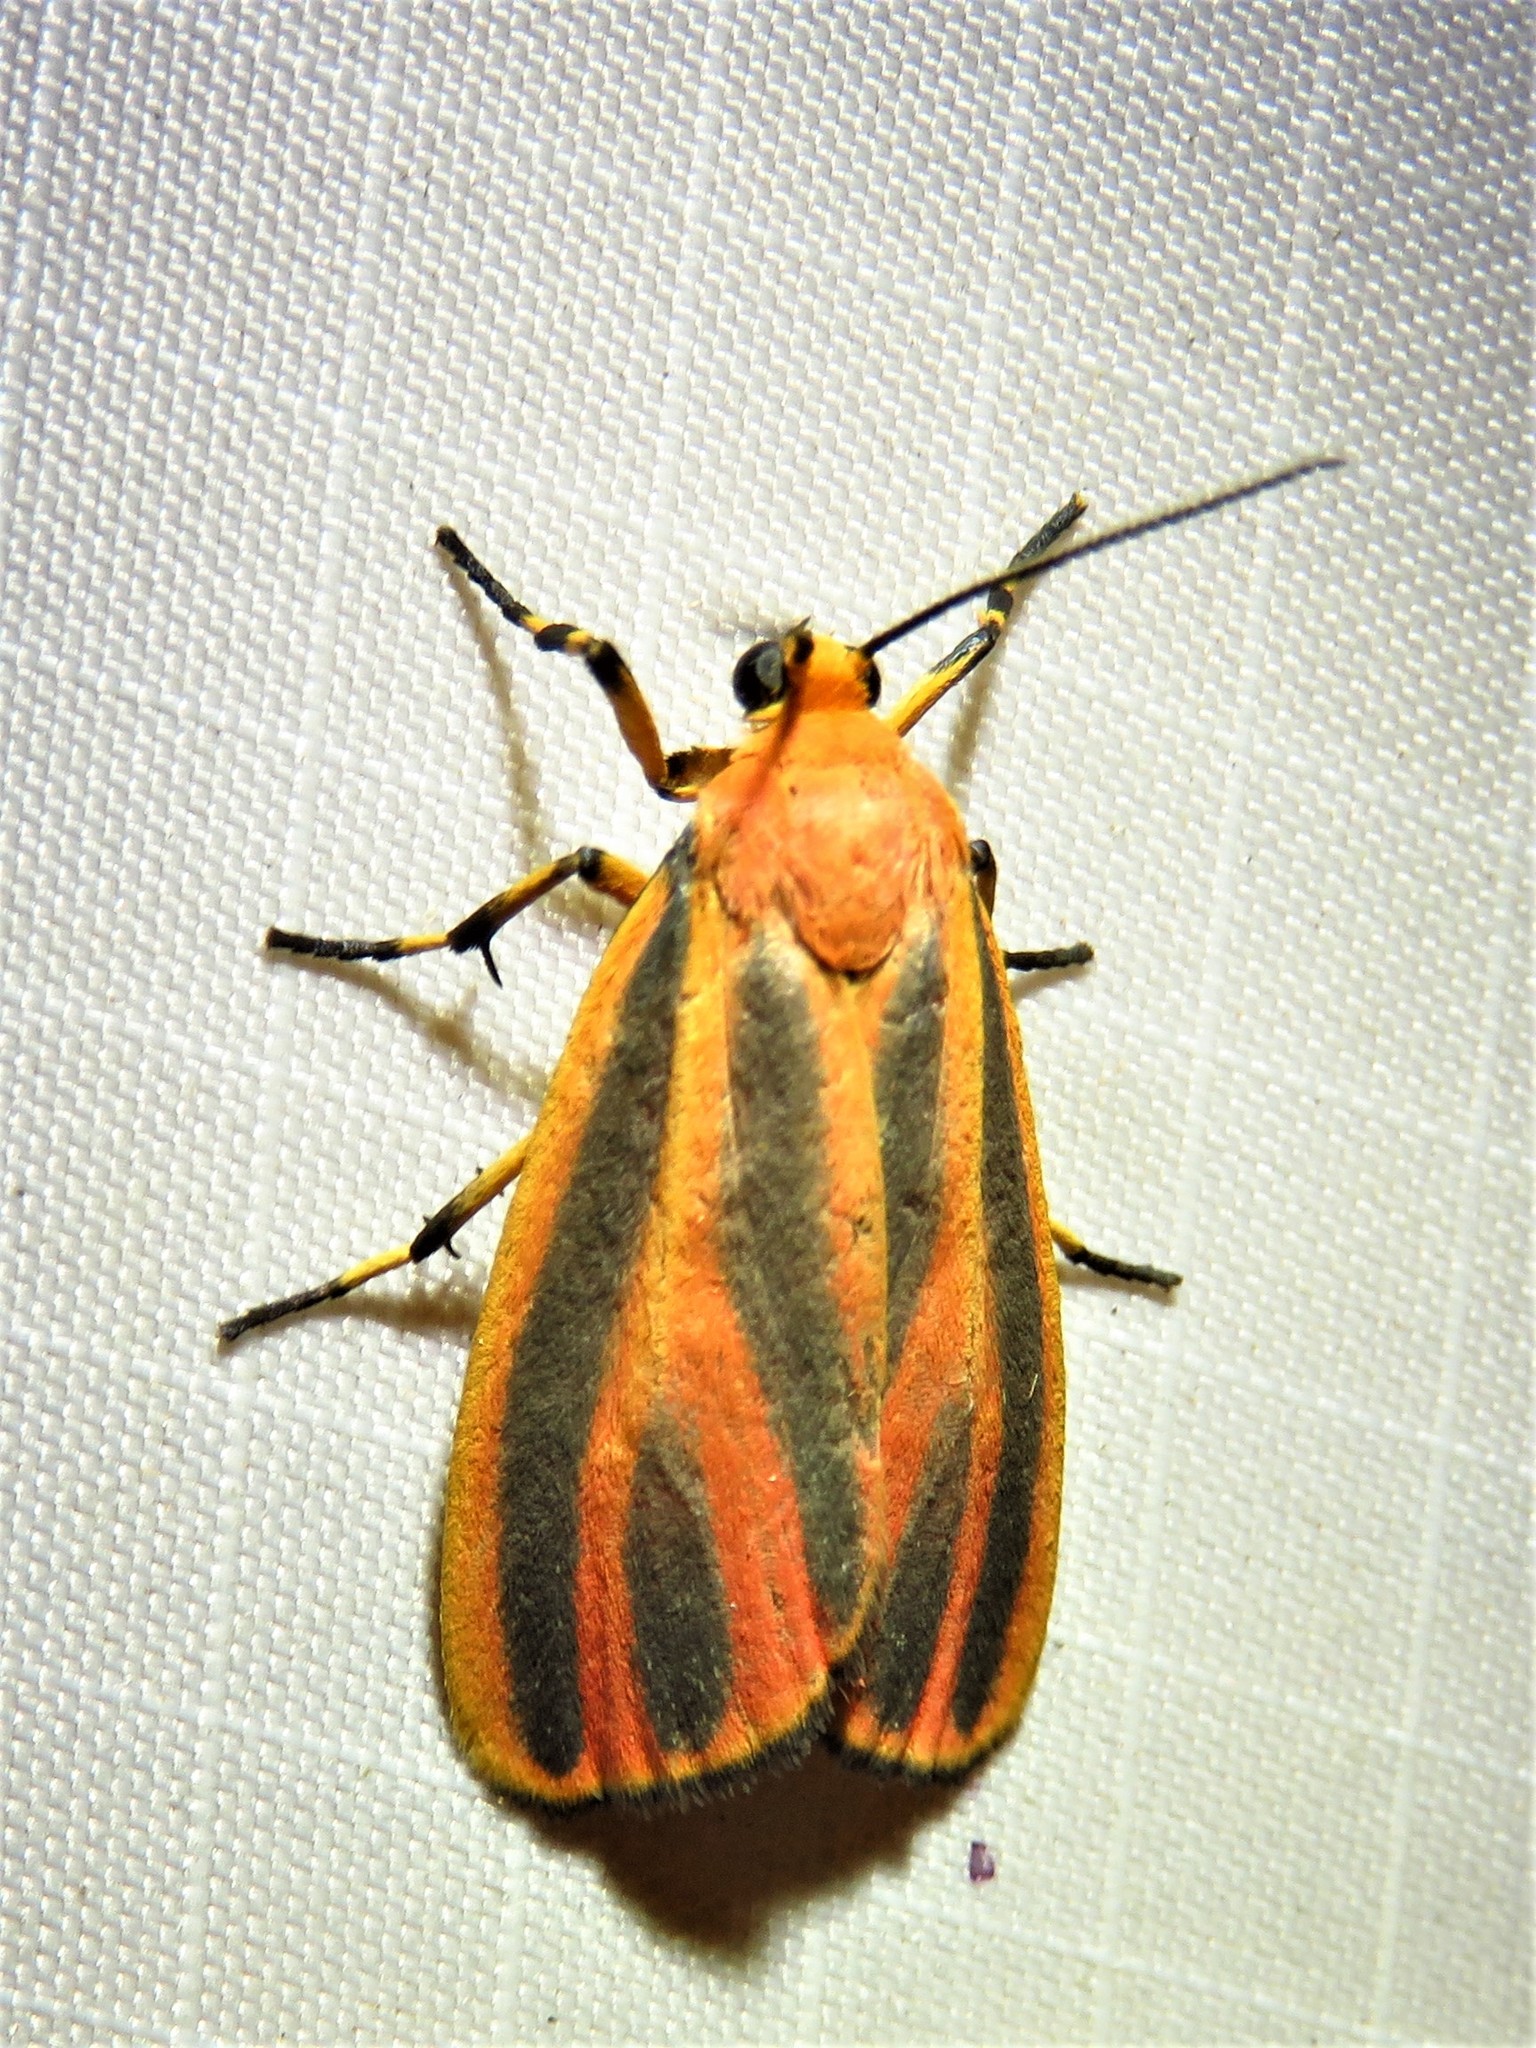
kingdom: Animalia
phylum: Arthropoda
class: Insecta
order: Lepidoptera
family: Erebidae
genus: Hypoprepia
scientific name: Hypoprepia fucosa
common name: Painted lichen moth
